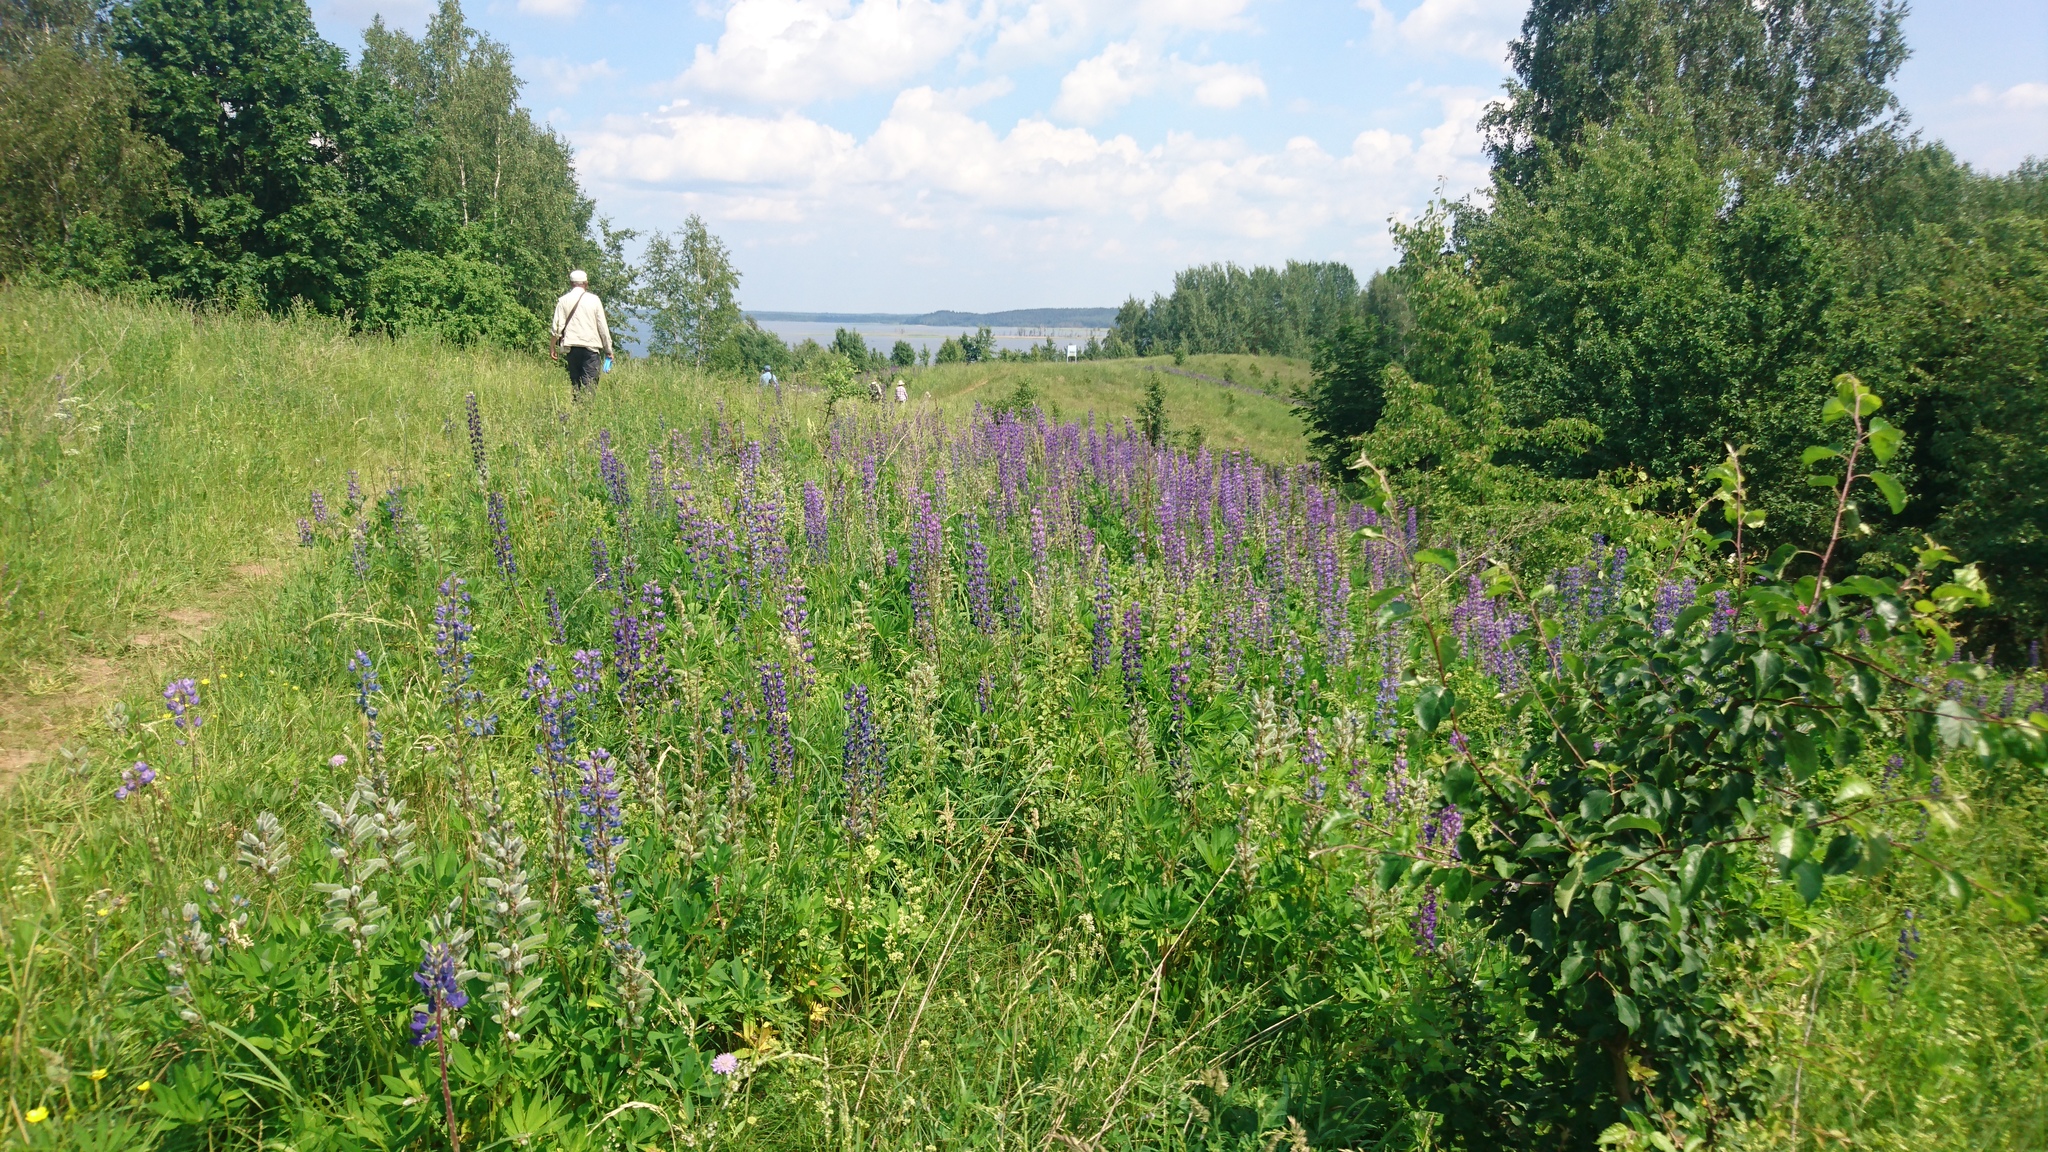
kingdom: Plantae
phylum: Tracheophyta
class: Magnoliopsida
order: Fabales
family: Fabaceae
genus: Lupinus
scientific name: Lupinus polyphyllus
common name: Garden lupin
